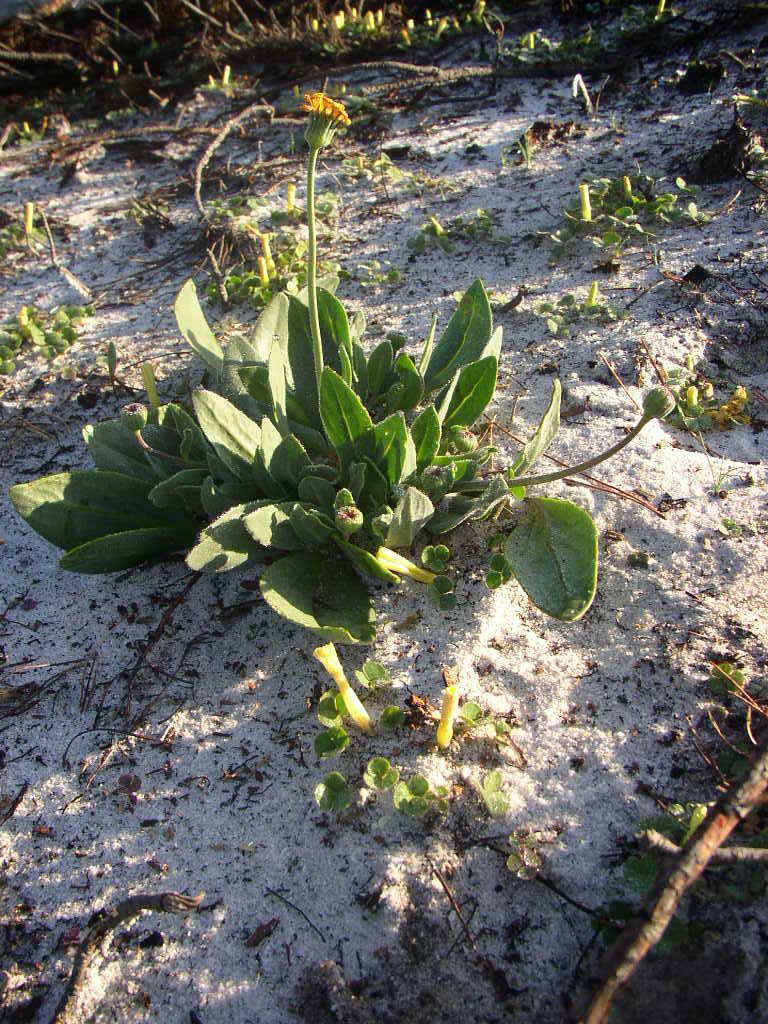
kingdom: Plantae
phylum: Tracheophyta
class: Magnoliopsida
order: Asterales
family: Asteraceae
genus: Othonna
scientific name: Othonna bulbosa
